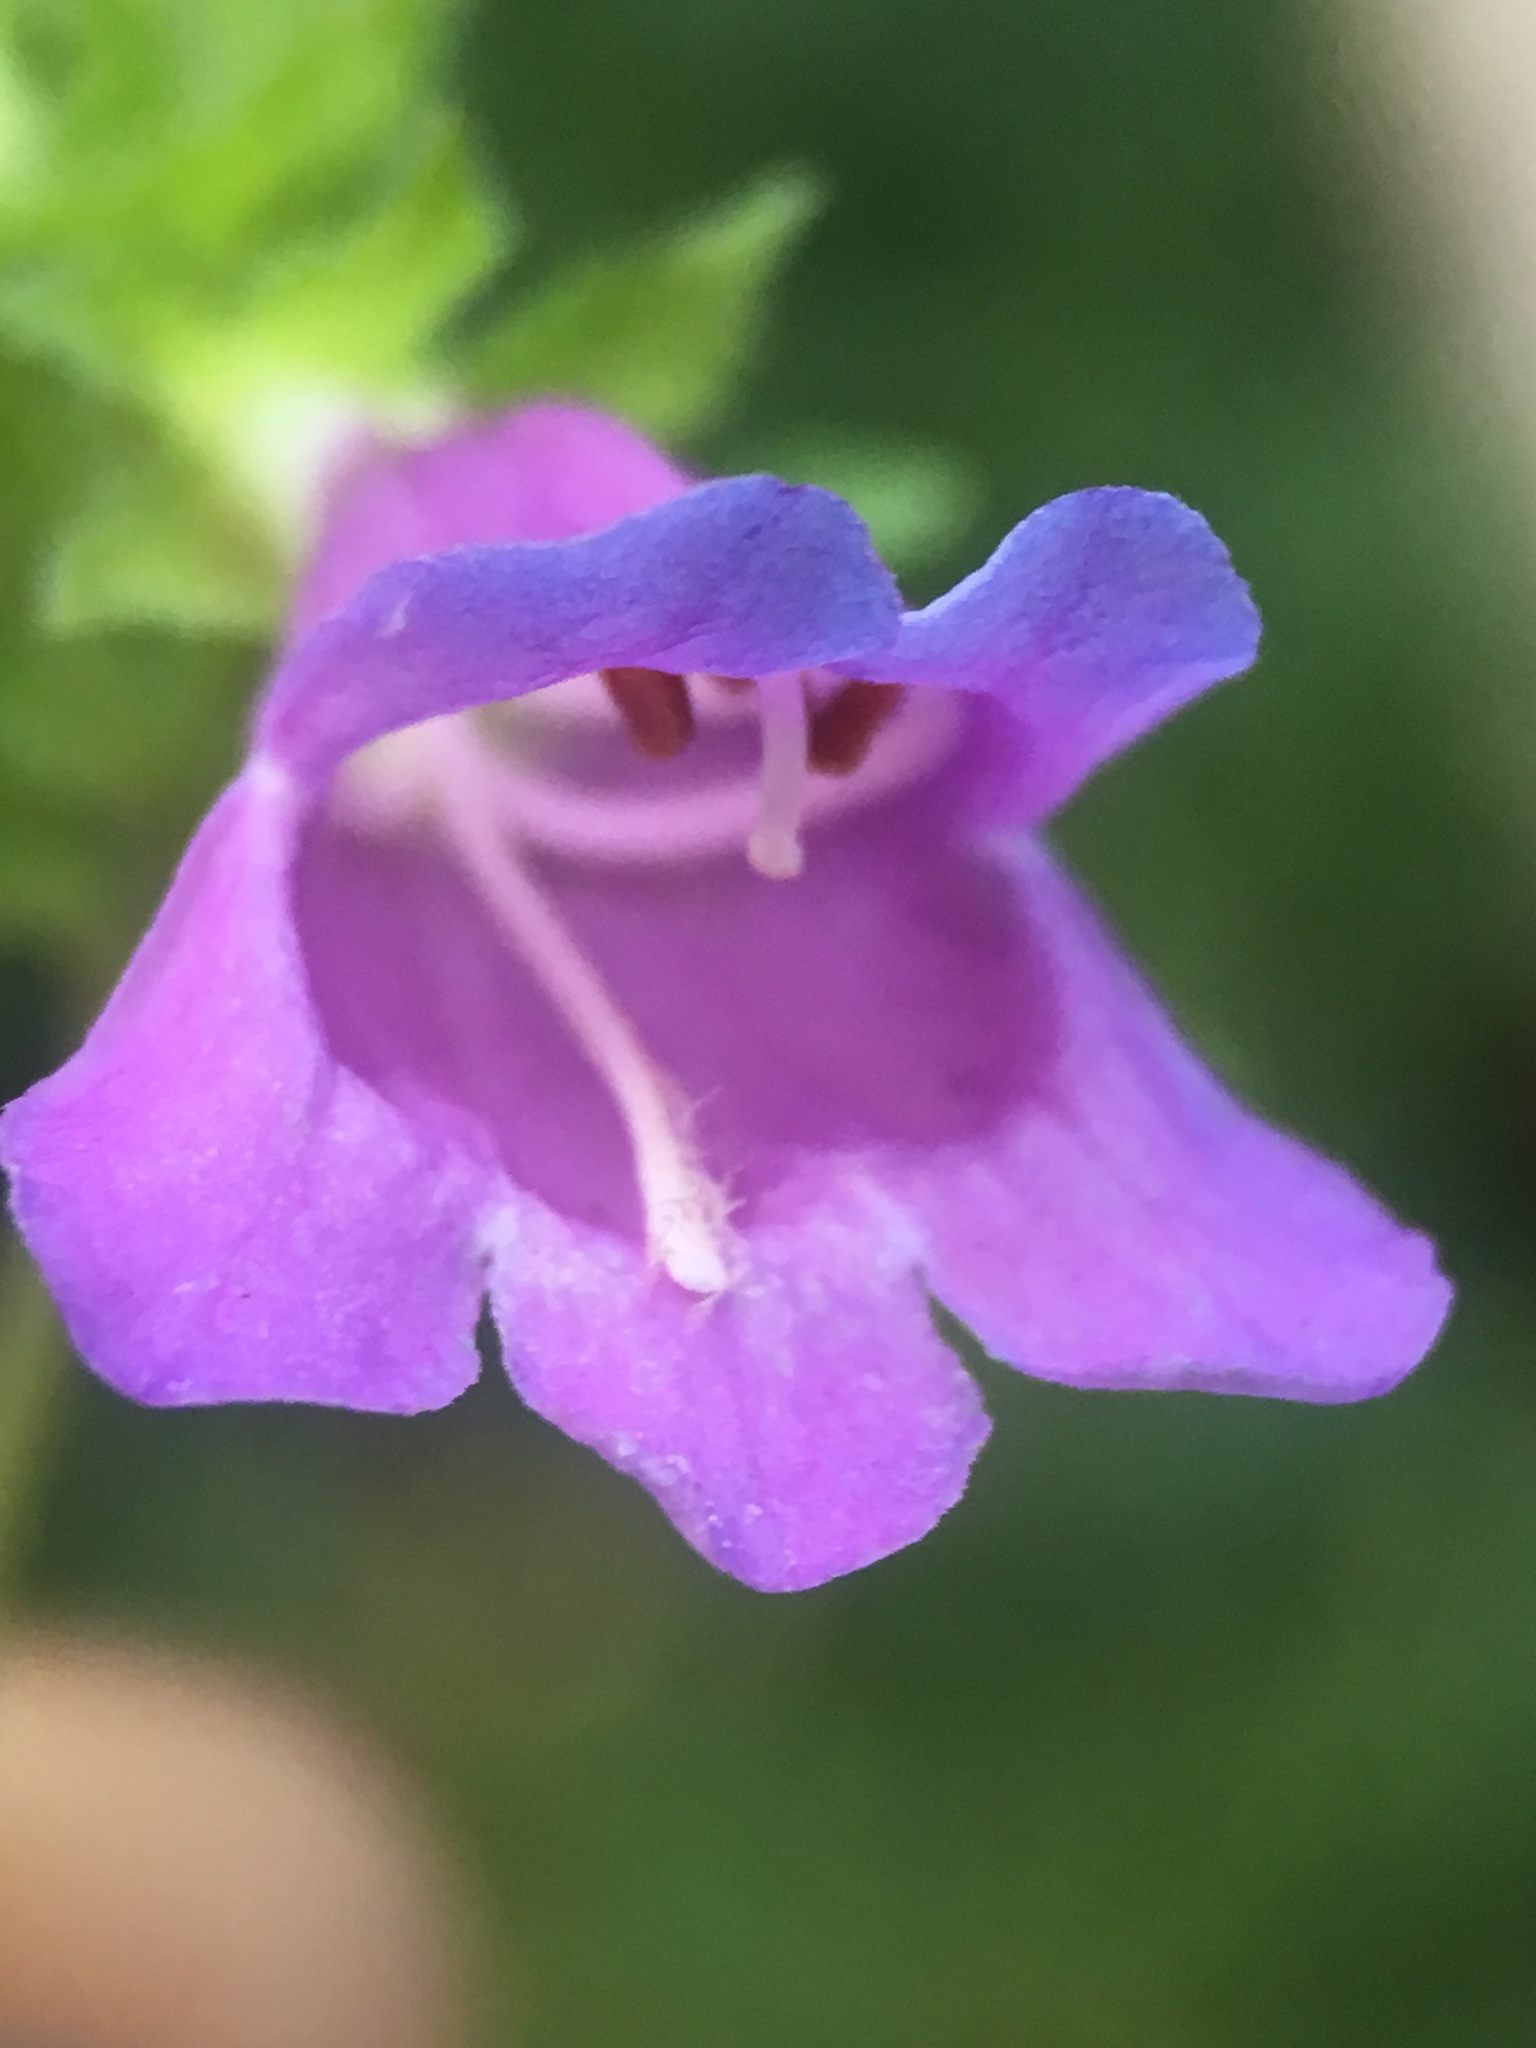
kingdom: Plantae
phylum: Tracheophyta
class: Magnoliopsida
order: Lamiales
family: Plantaginaceae
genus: Penstemon
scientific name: Penstemon serrulatus
